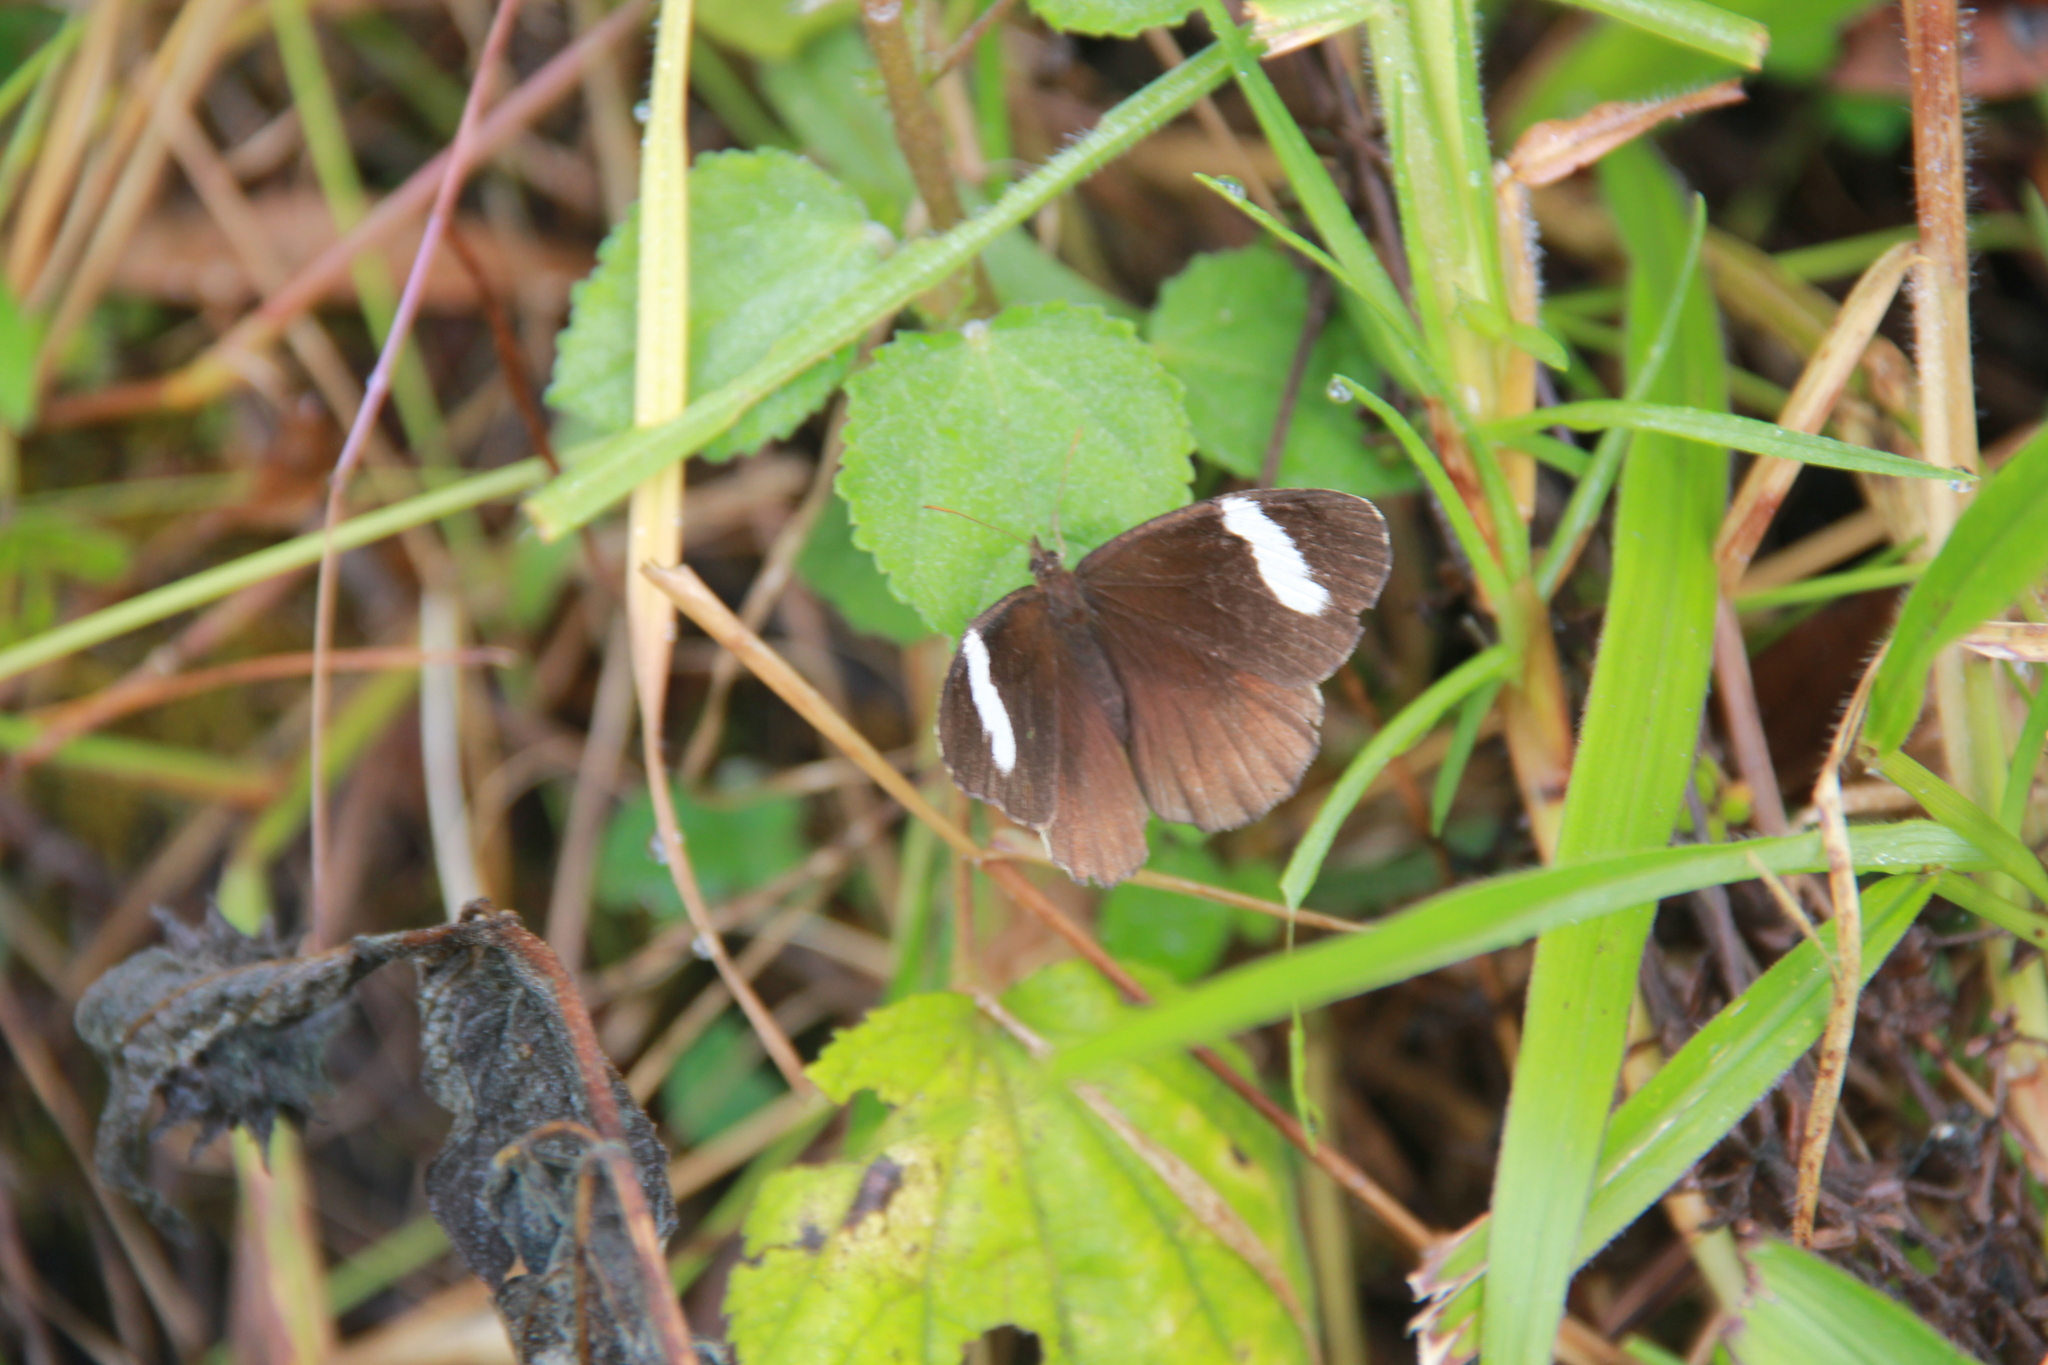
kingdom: Animalia
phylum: Arthropoda
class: Insecta
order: Lepidoptera
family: Nymphalidae
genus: Pedaliodes
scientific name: Pedaliodes porina
